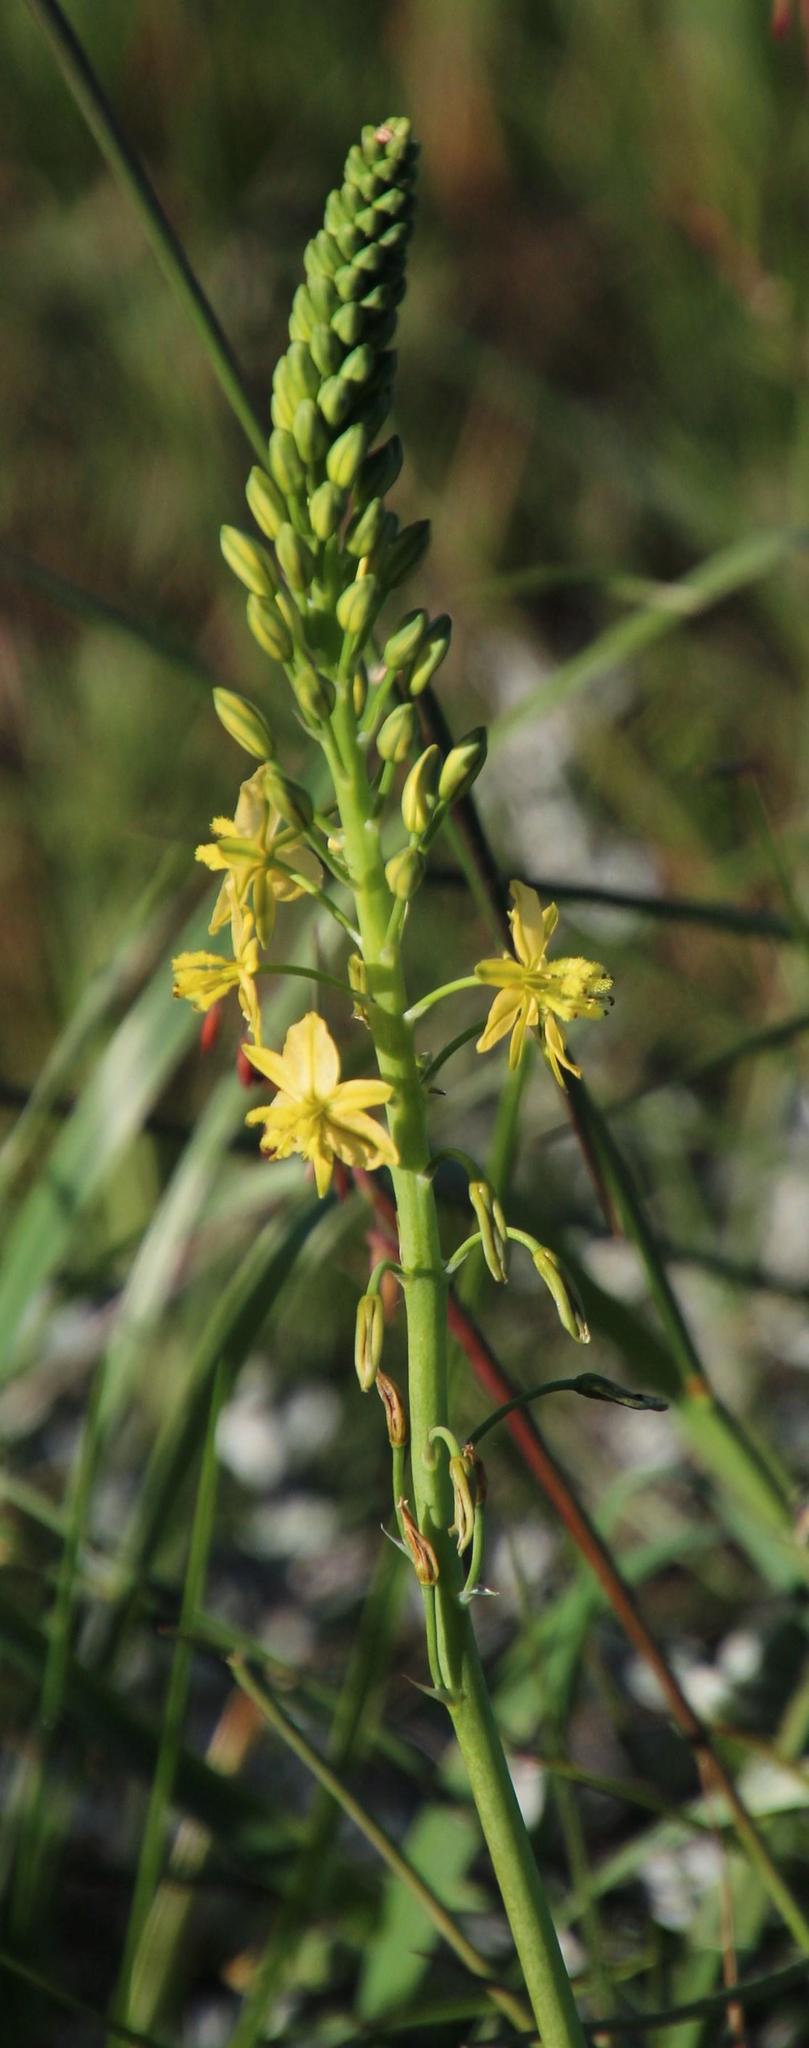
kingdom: Plantae
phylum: Tracheophyta
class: Liliopsida
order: Asparagales
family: Asphodelaceae
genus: Bulbine
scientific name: Bulbine praemorsa
